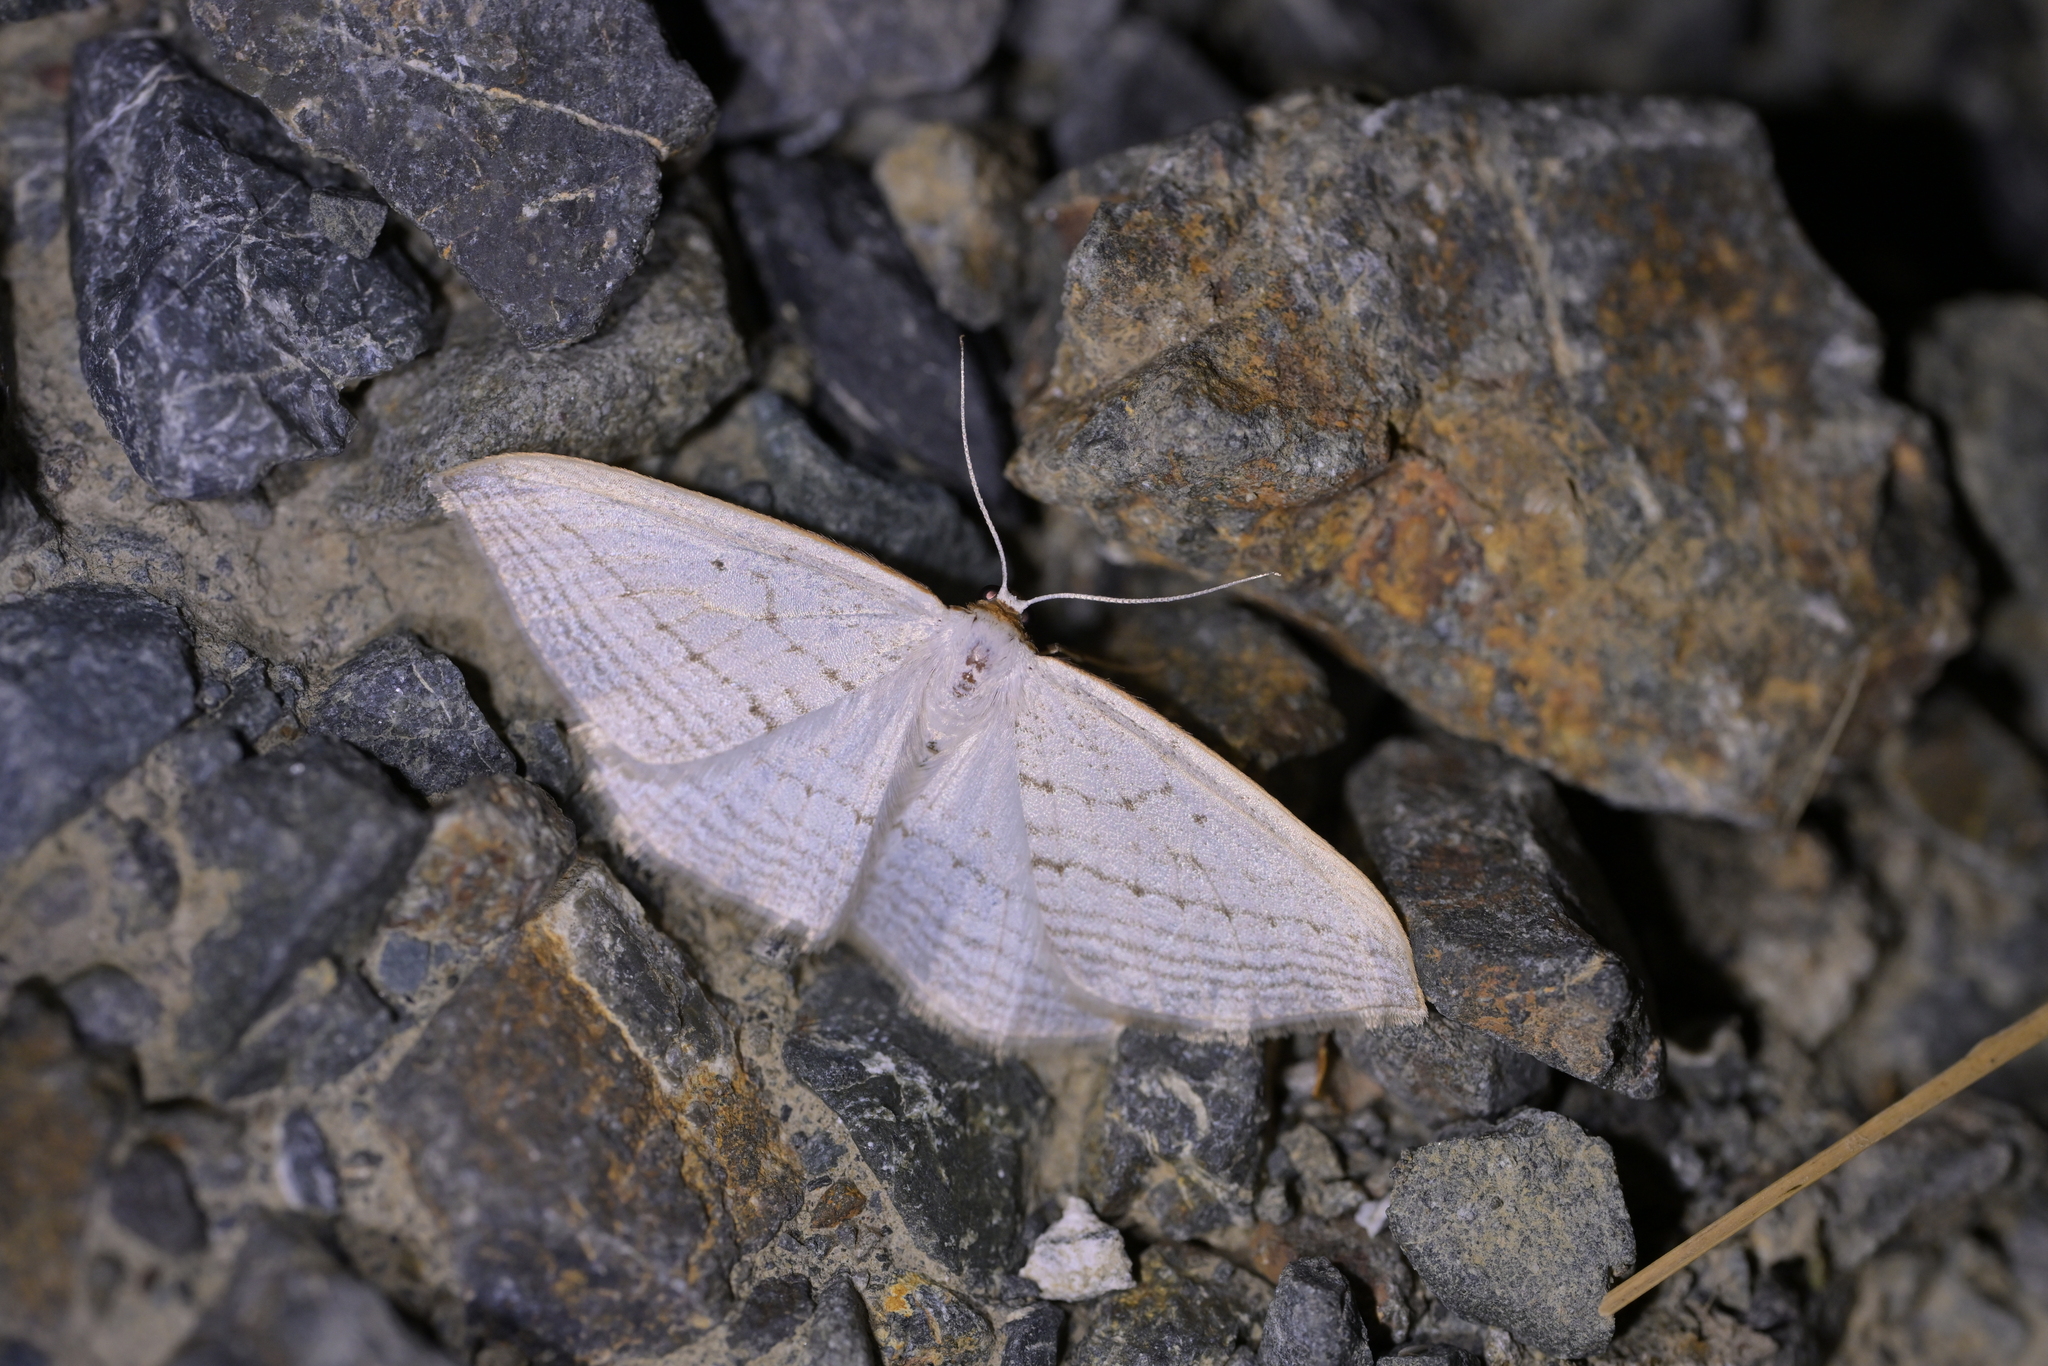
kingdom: Animalia
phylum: Arthropoda
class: Insecta
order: Lepidoptera
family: Geometridae
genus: Orthoclydon
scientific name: Orthoclydon praefectata
